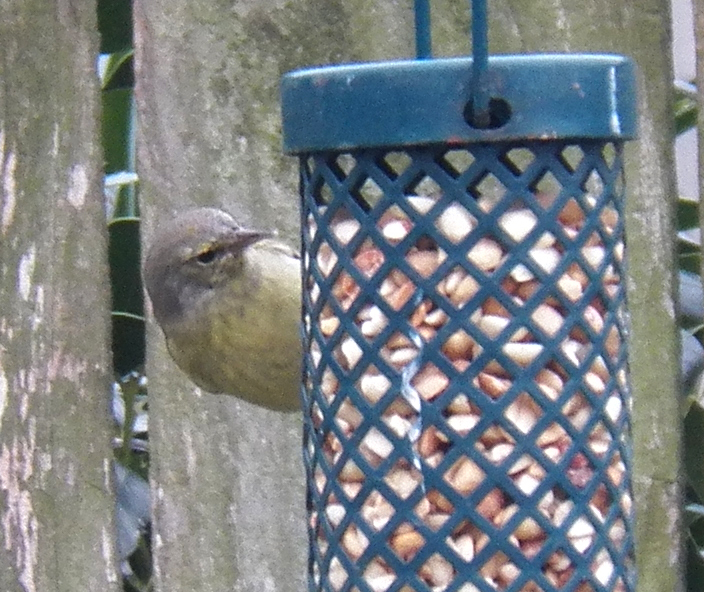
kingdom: Animalia
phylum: Chordata
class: Aves
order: Passeriformes
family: Parulidae
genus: Leiothlypis
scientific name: Leiothlypis celata
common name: Orange-crowned warbler
